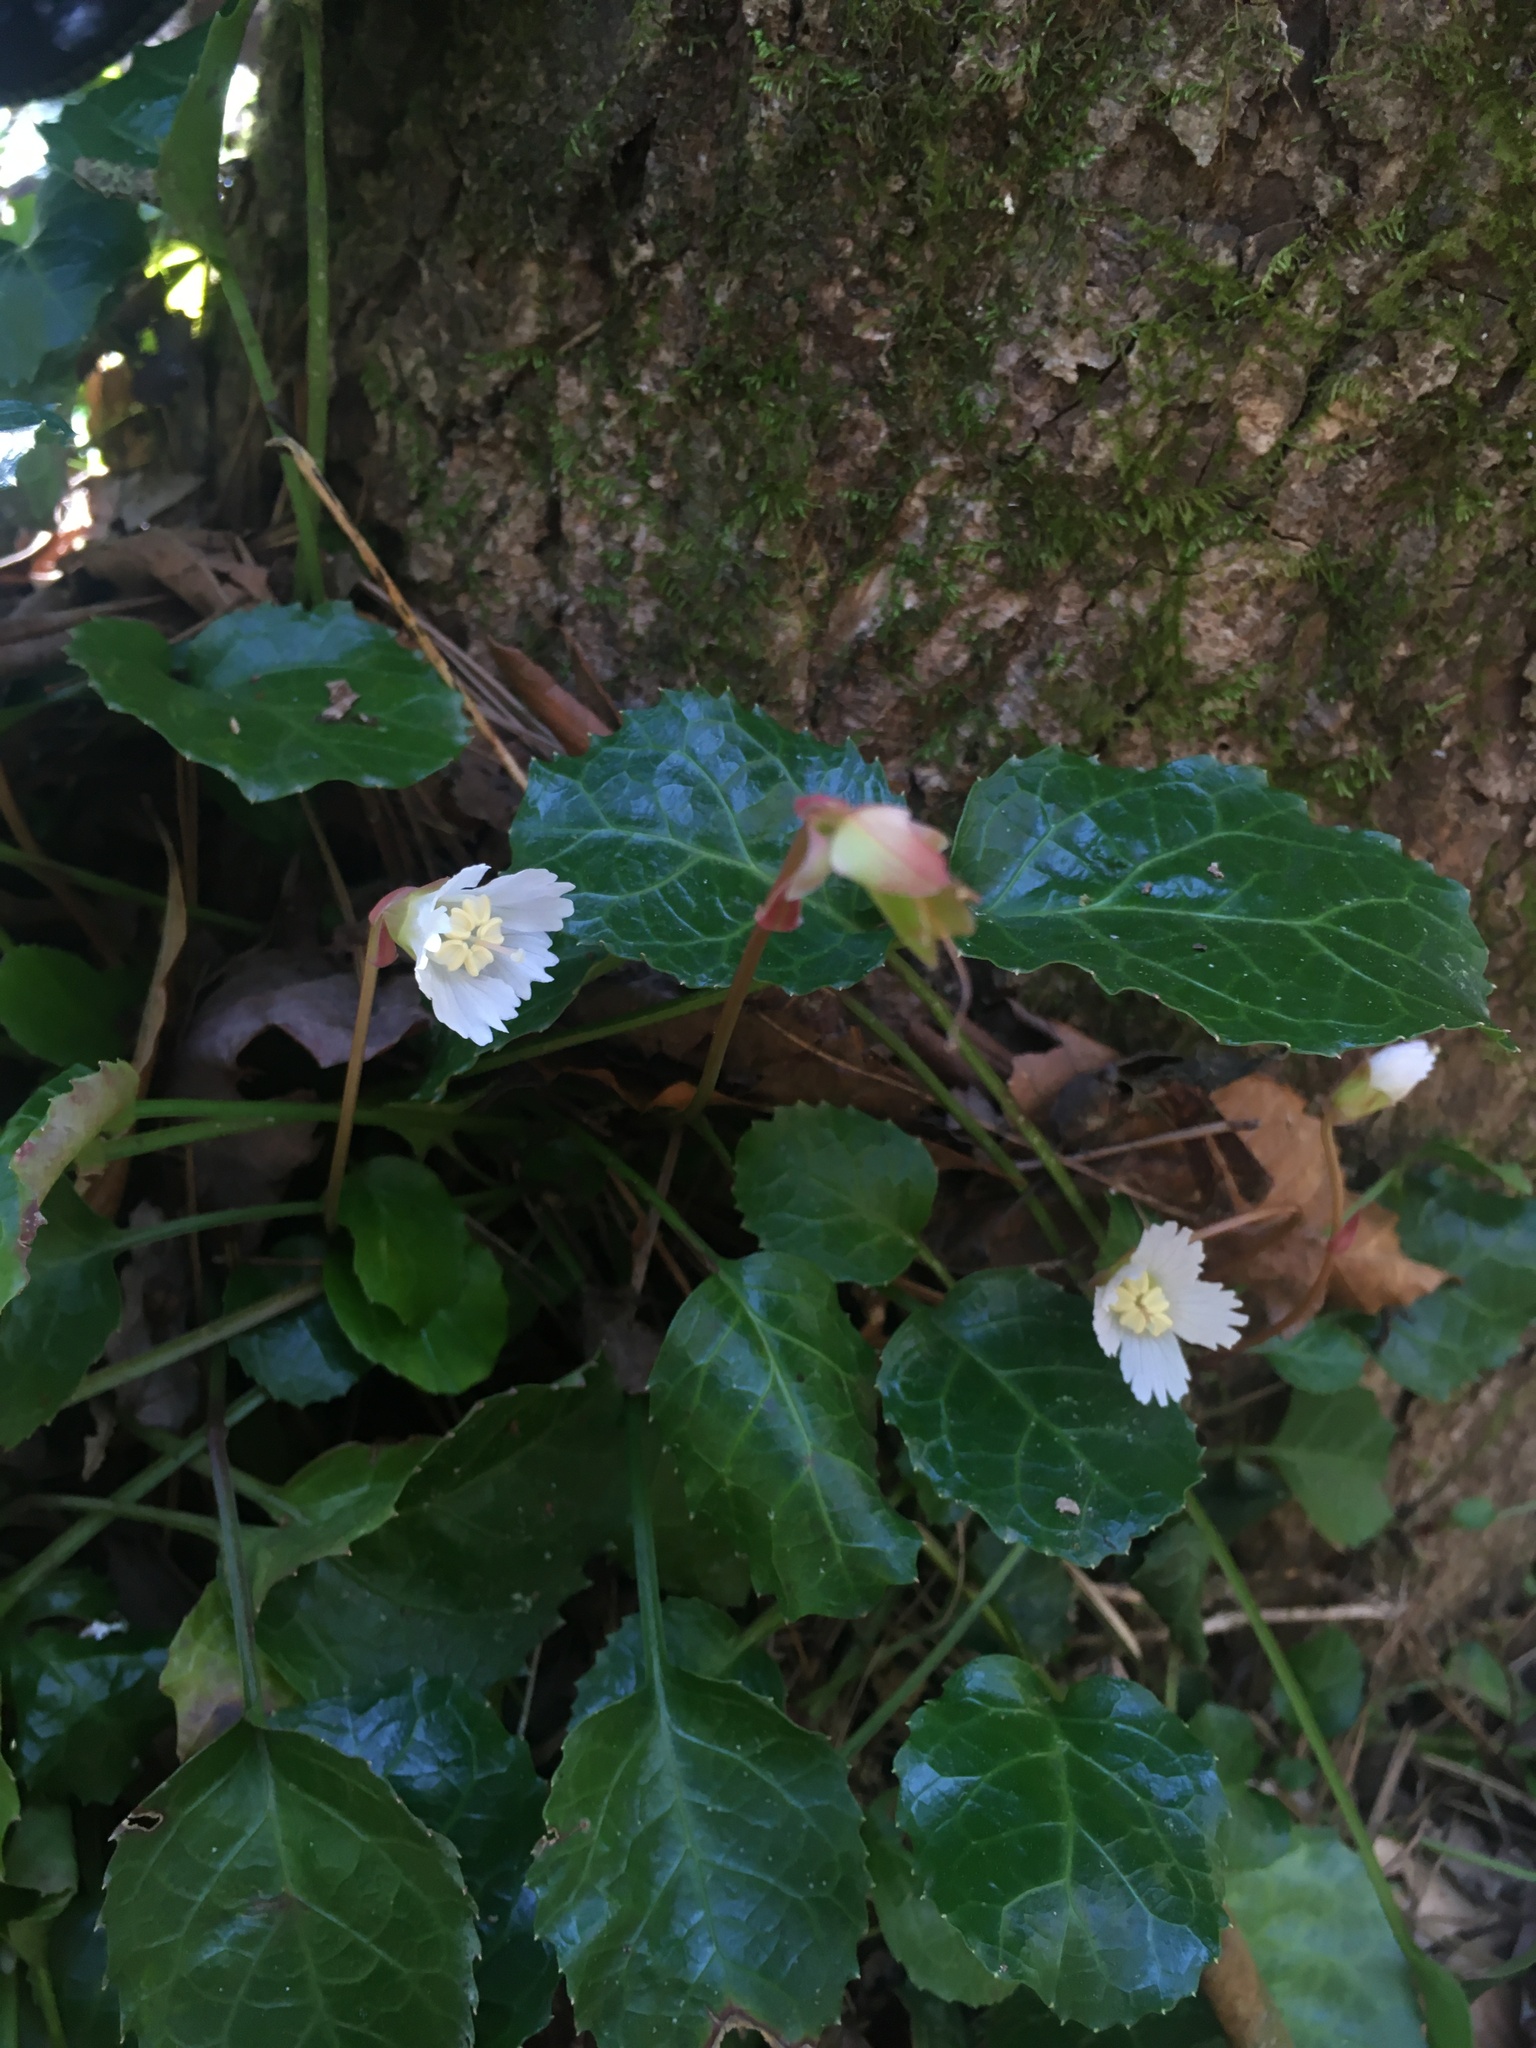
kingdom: Plantae
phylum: Tracheophyta
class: Magnoliopsida
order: Ericales
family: Diapensiaceae
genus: Shortia
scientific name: Shortia galacifolia
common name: Shortia
